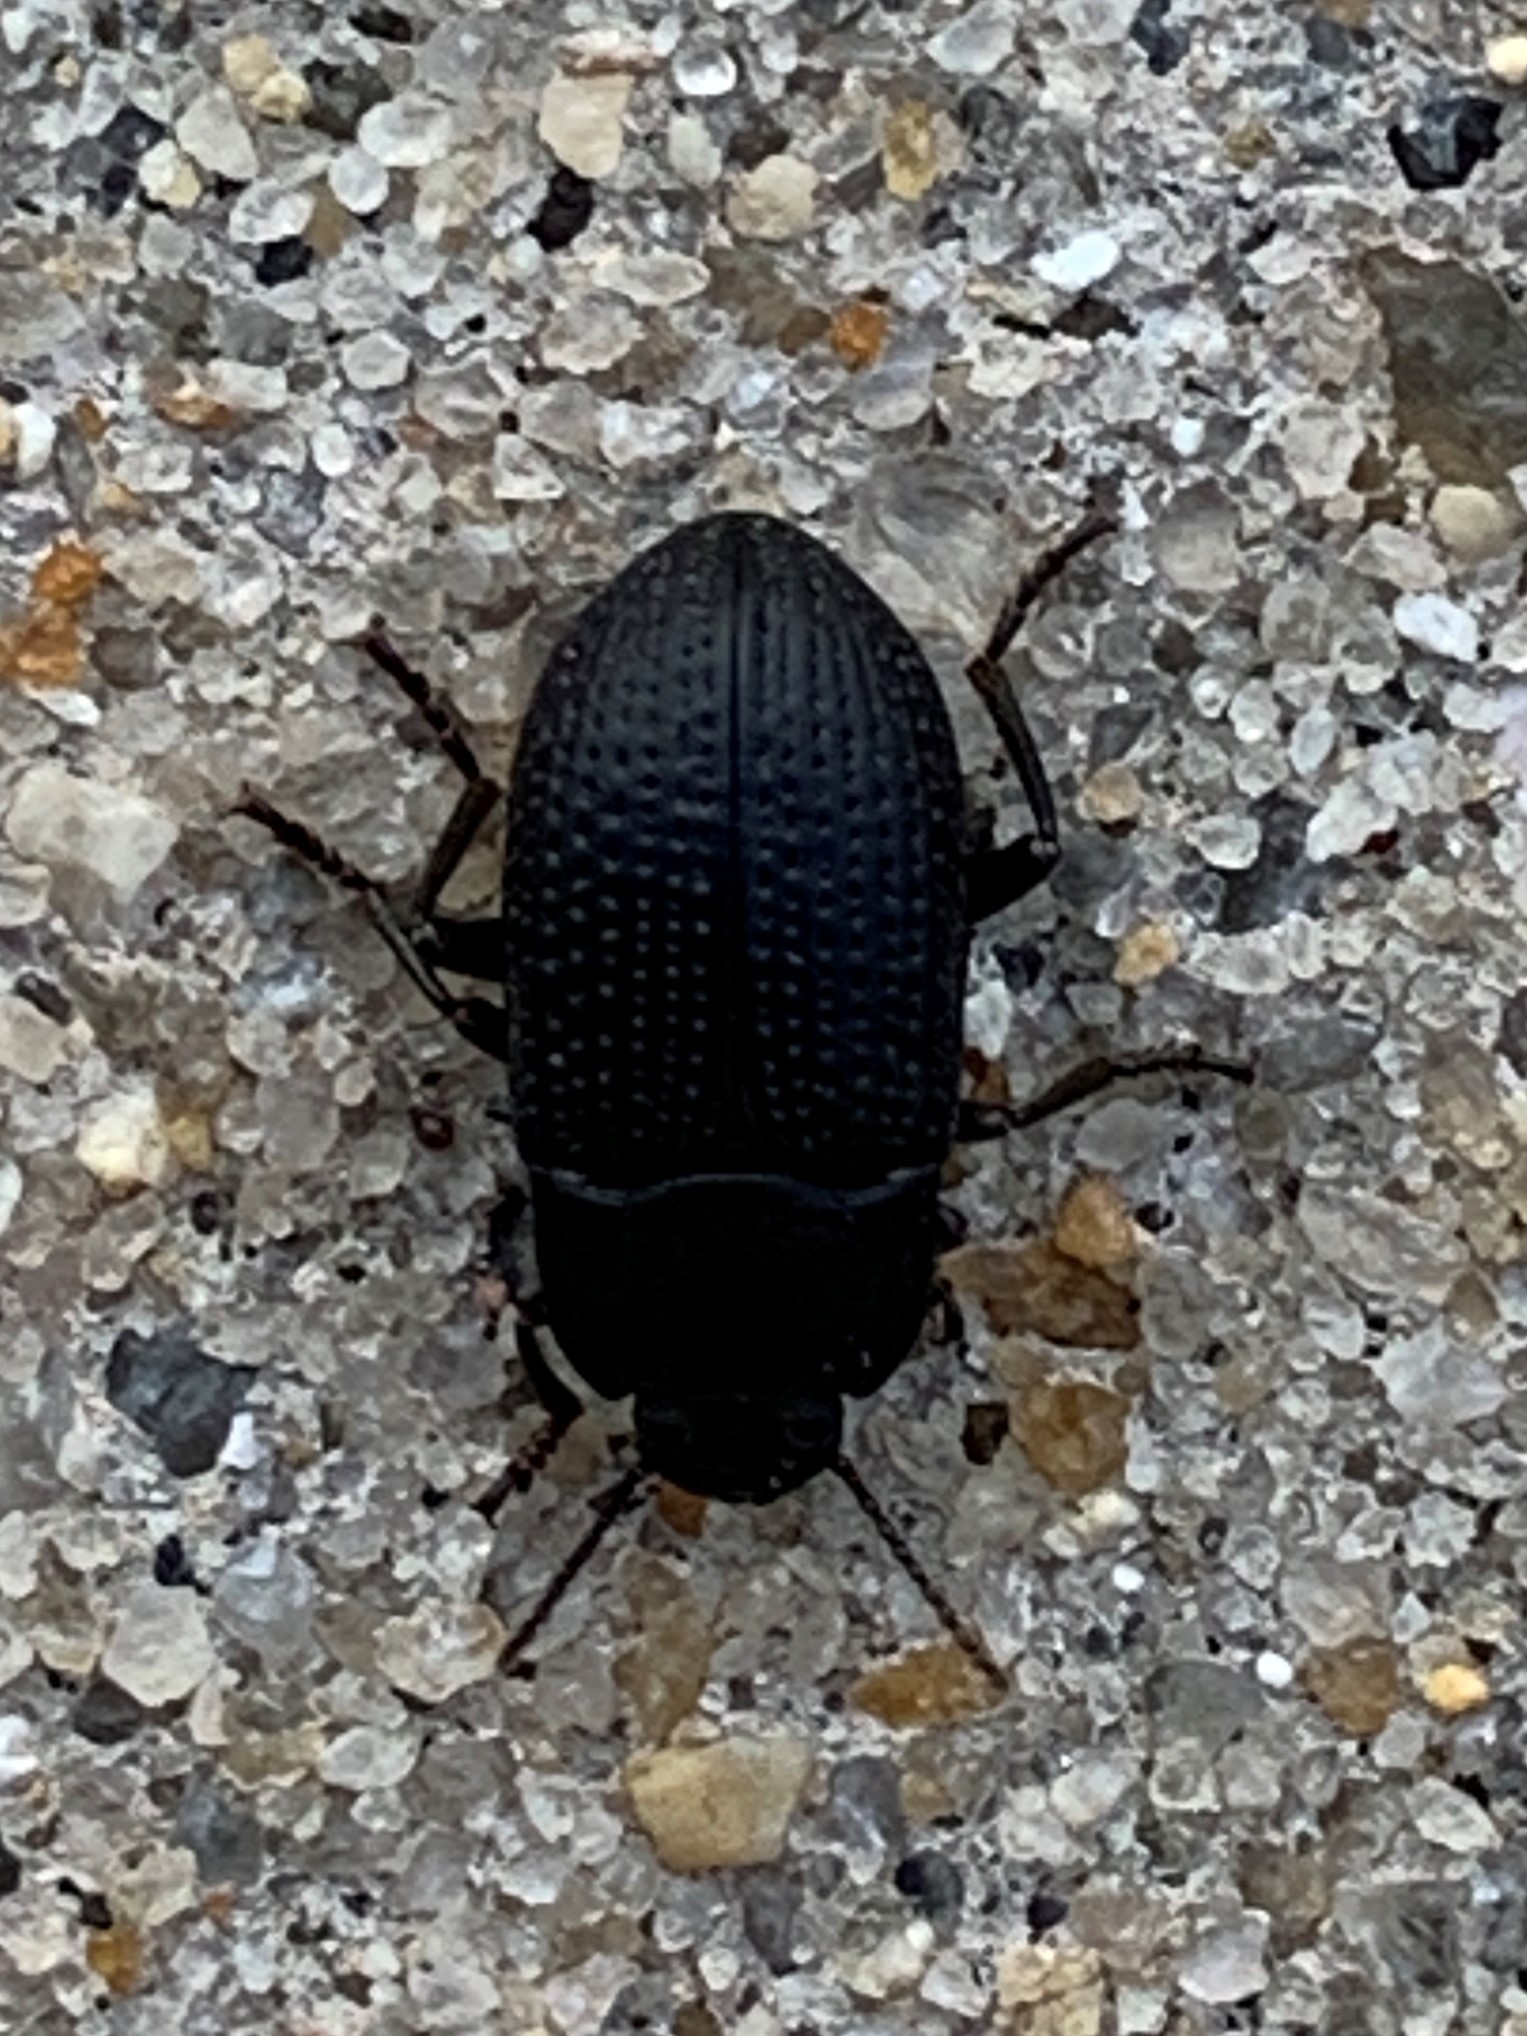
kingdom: Animalia
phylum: Arthropoda
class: Insecta
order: Coleoptera
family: Tenebrionidae
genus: Asiopus
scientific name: Asiopus
